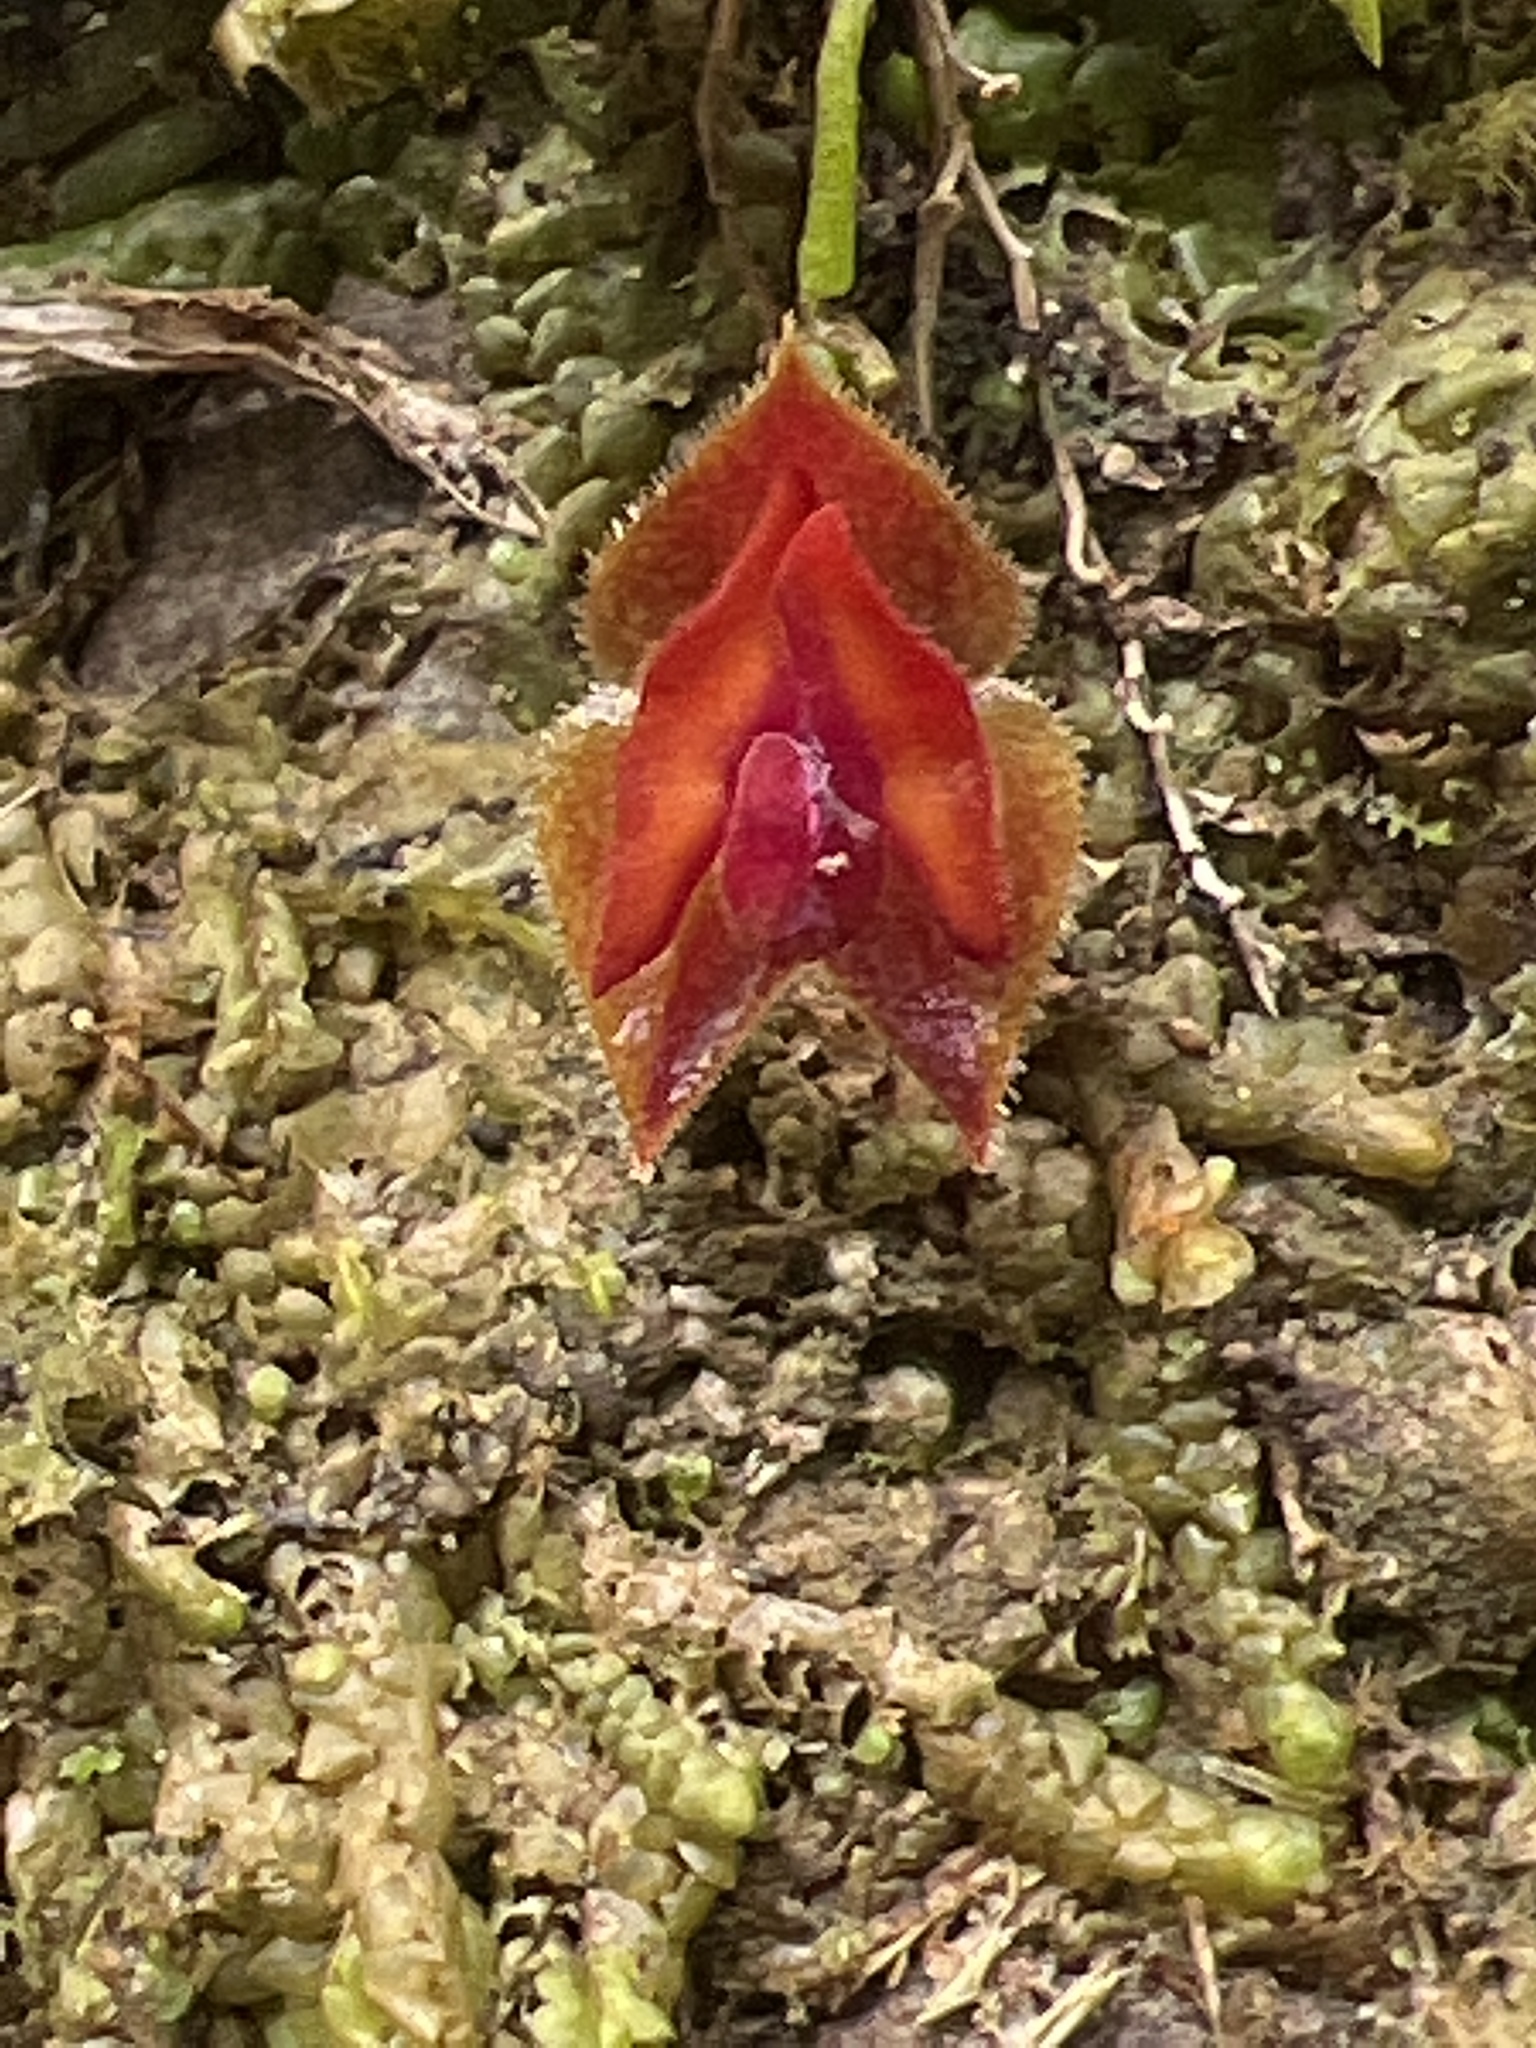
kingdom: Plantae
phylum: Tracheophyta
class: Liliopsida
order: Asparagales
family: Orchidaceae
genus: Lepanthes
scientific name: Lepanthes caritensis
